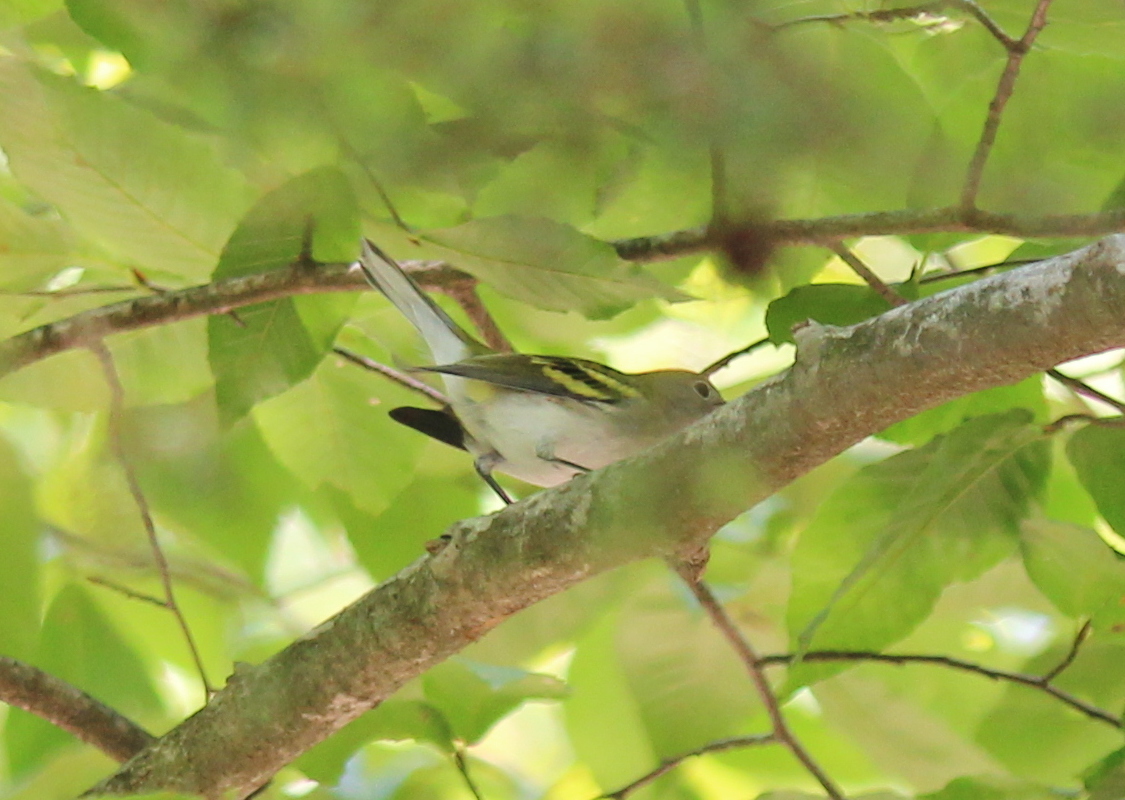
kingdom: Animalia
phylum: Chordata
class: Aves
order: Passeriformes
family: Parulidae
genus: Setophaga
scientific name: Setophaga pensylvanica
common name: Chestnut-sided warbler
